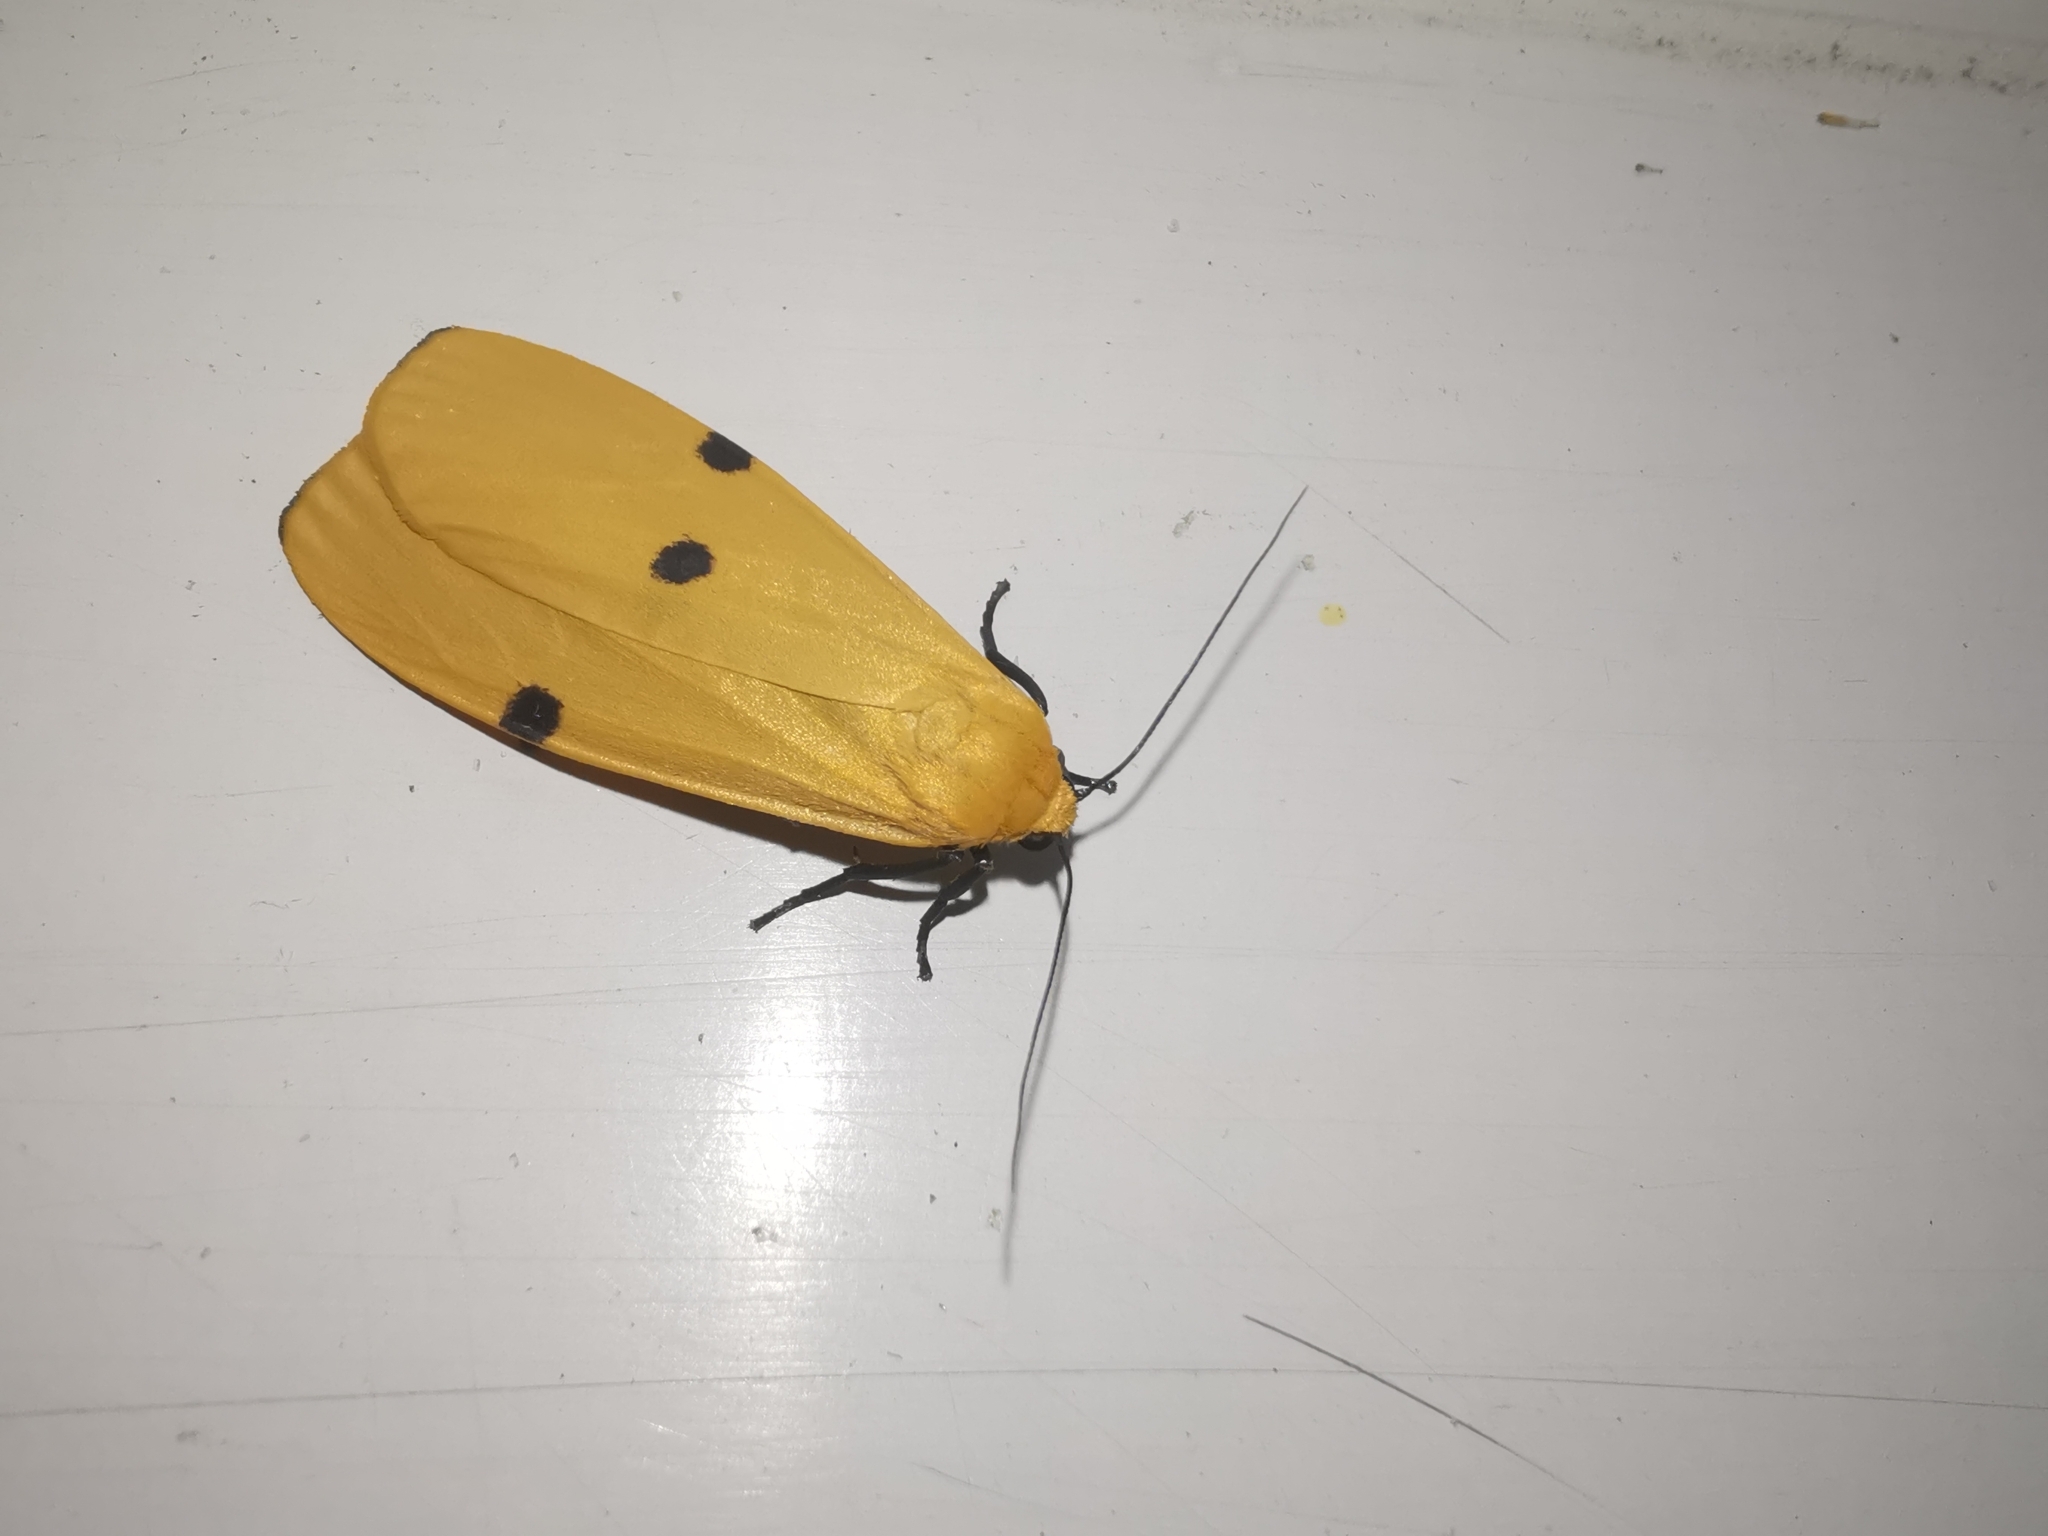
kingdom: Animalia
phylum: Arthropoda
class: Insecta
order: Lepidoptera
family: Erebidae
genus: Lithosia
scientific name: Lithosia quadra
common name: Four-spotted footman
